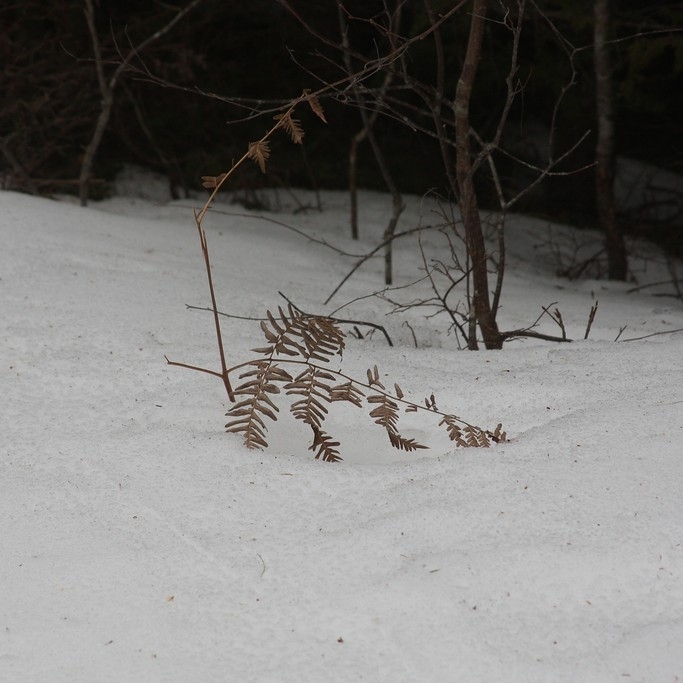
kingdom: Plantae
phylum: Tracheophyta
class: Polypodiopsida
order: Polypodiales
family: Dennstaedtiaceae
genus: Pteridium
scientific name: Pteridium aquilinum
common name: Bracken
